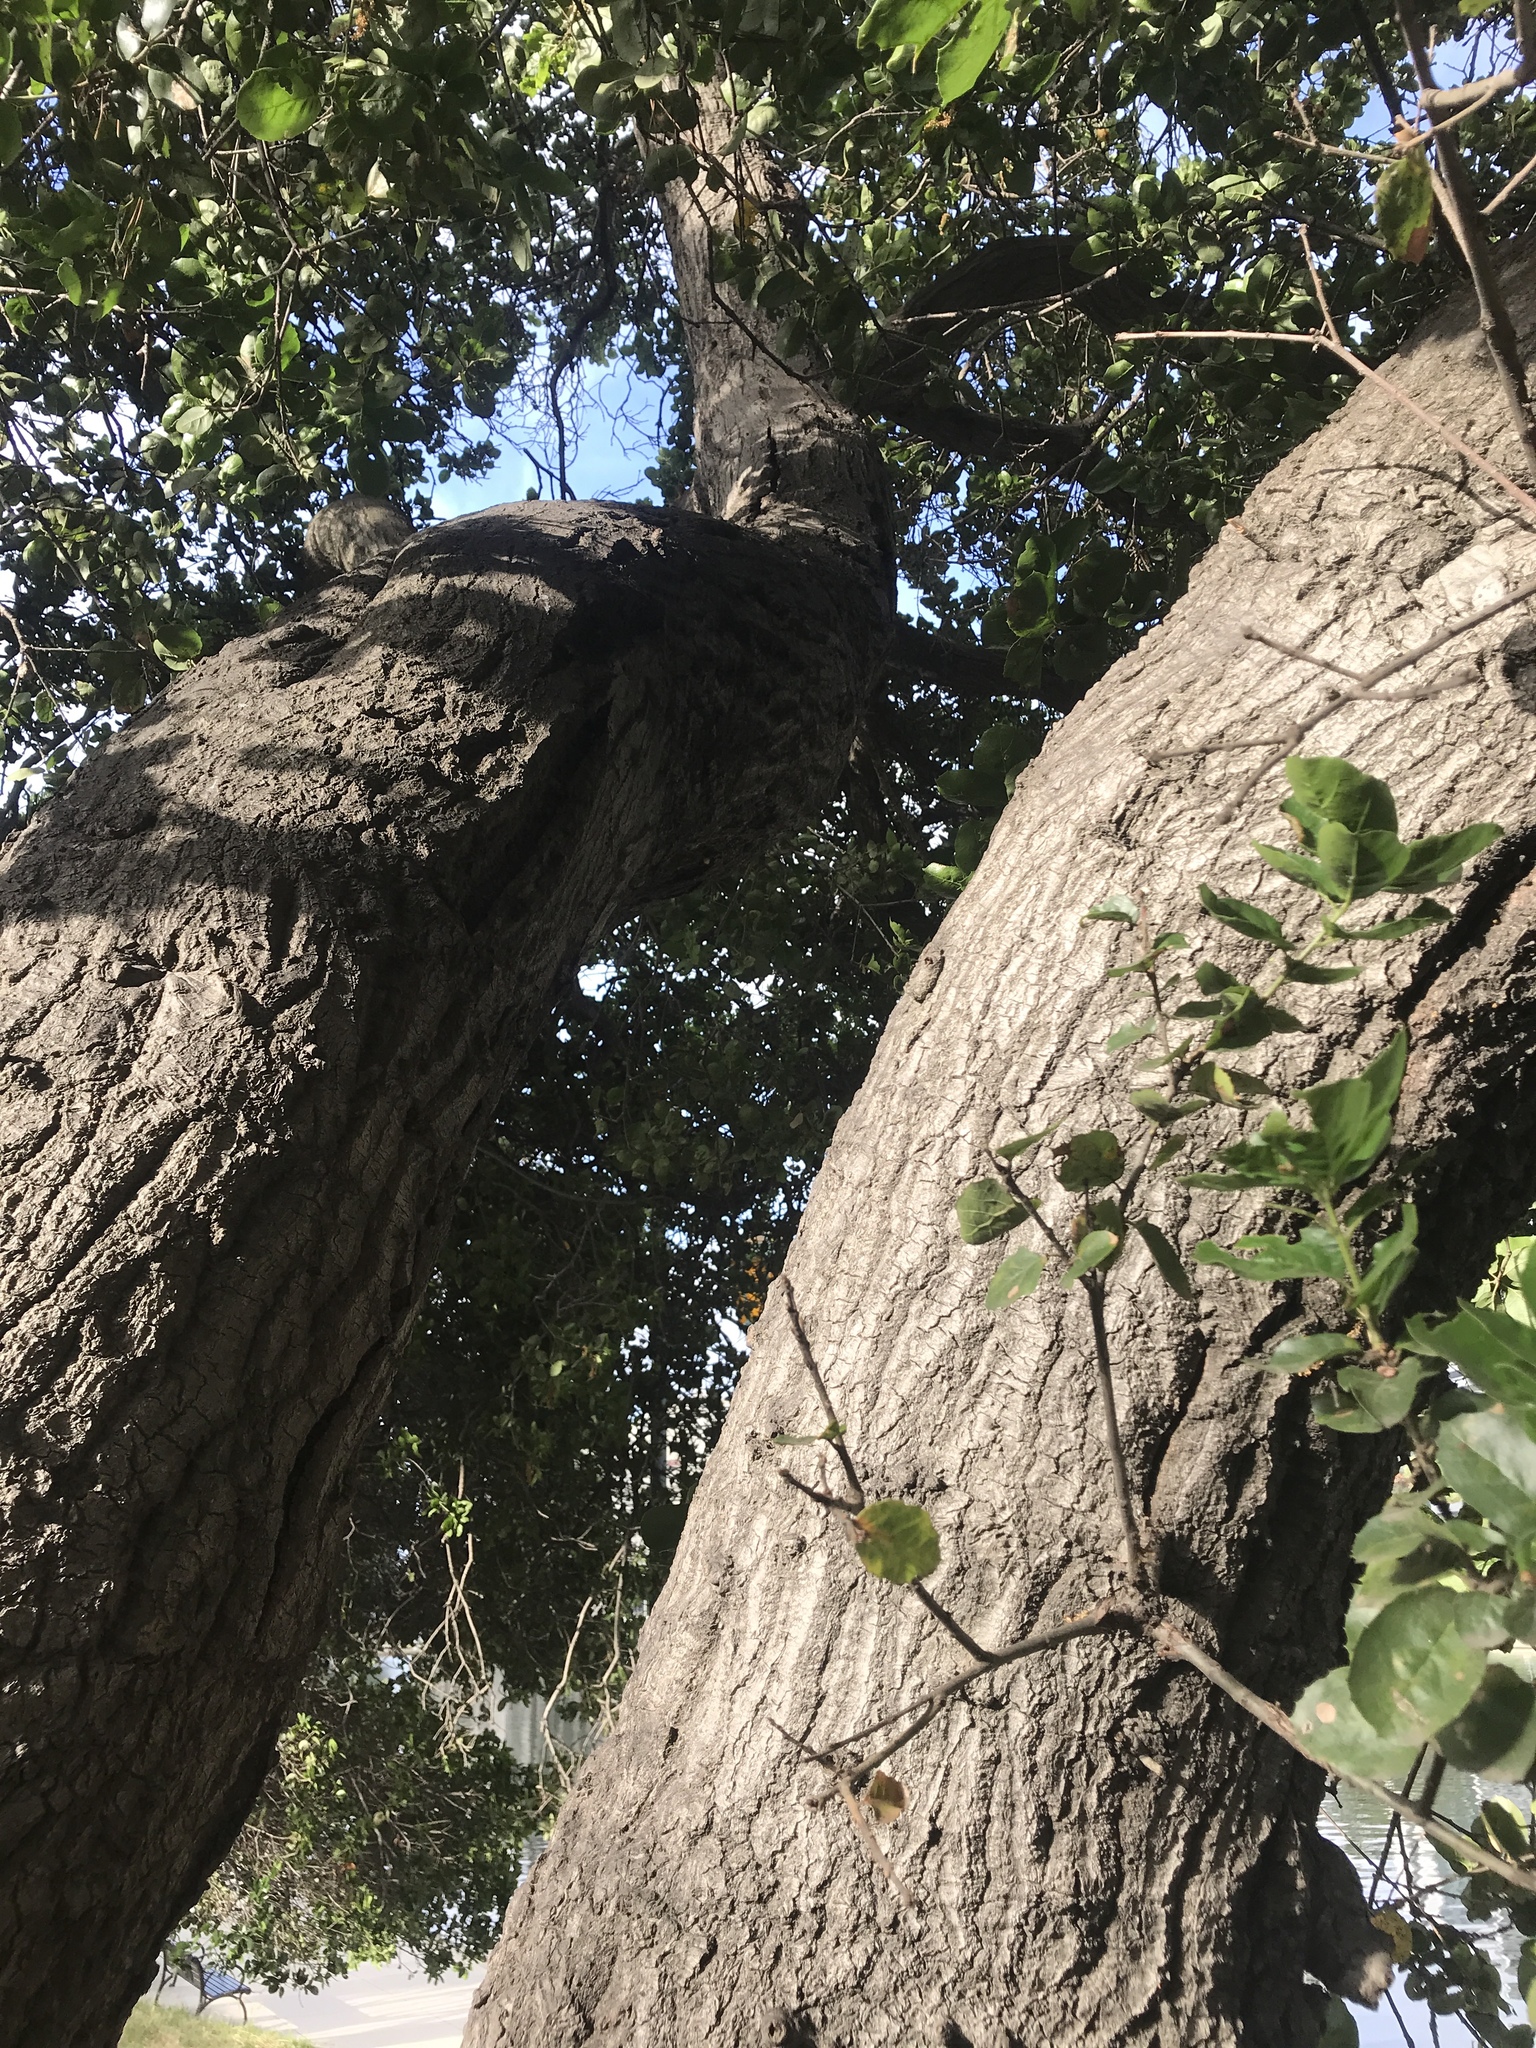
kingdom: Plantae
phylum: Tracheophyta
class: Magnoliopsida
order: Fagales
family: Fagaceae
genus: Quercus
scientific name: Quercus agrifolia
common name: California live oak
